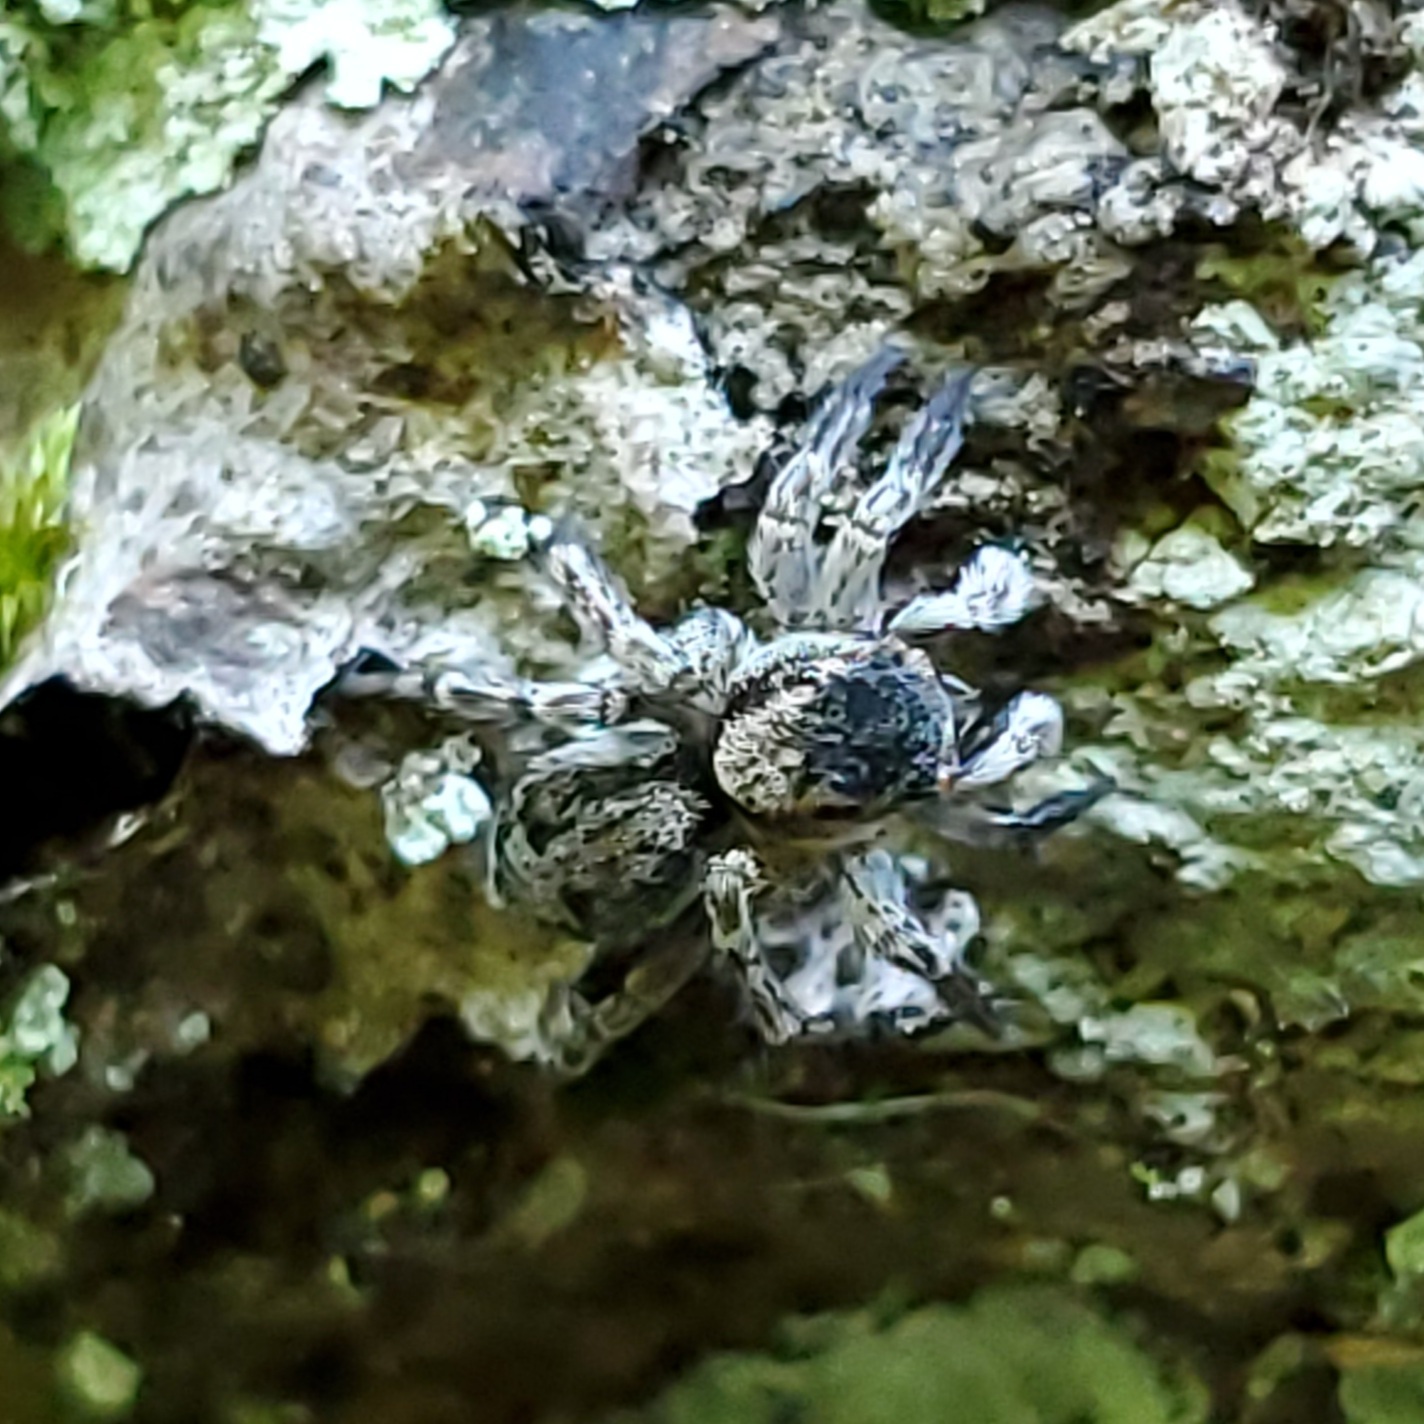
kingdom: Animalia
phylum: Arthropoda
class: Arachnida
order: Araneae
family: Salticidae
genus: Naphrys
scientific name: Naphrys pulex
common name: Flea jumping spider
